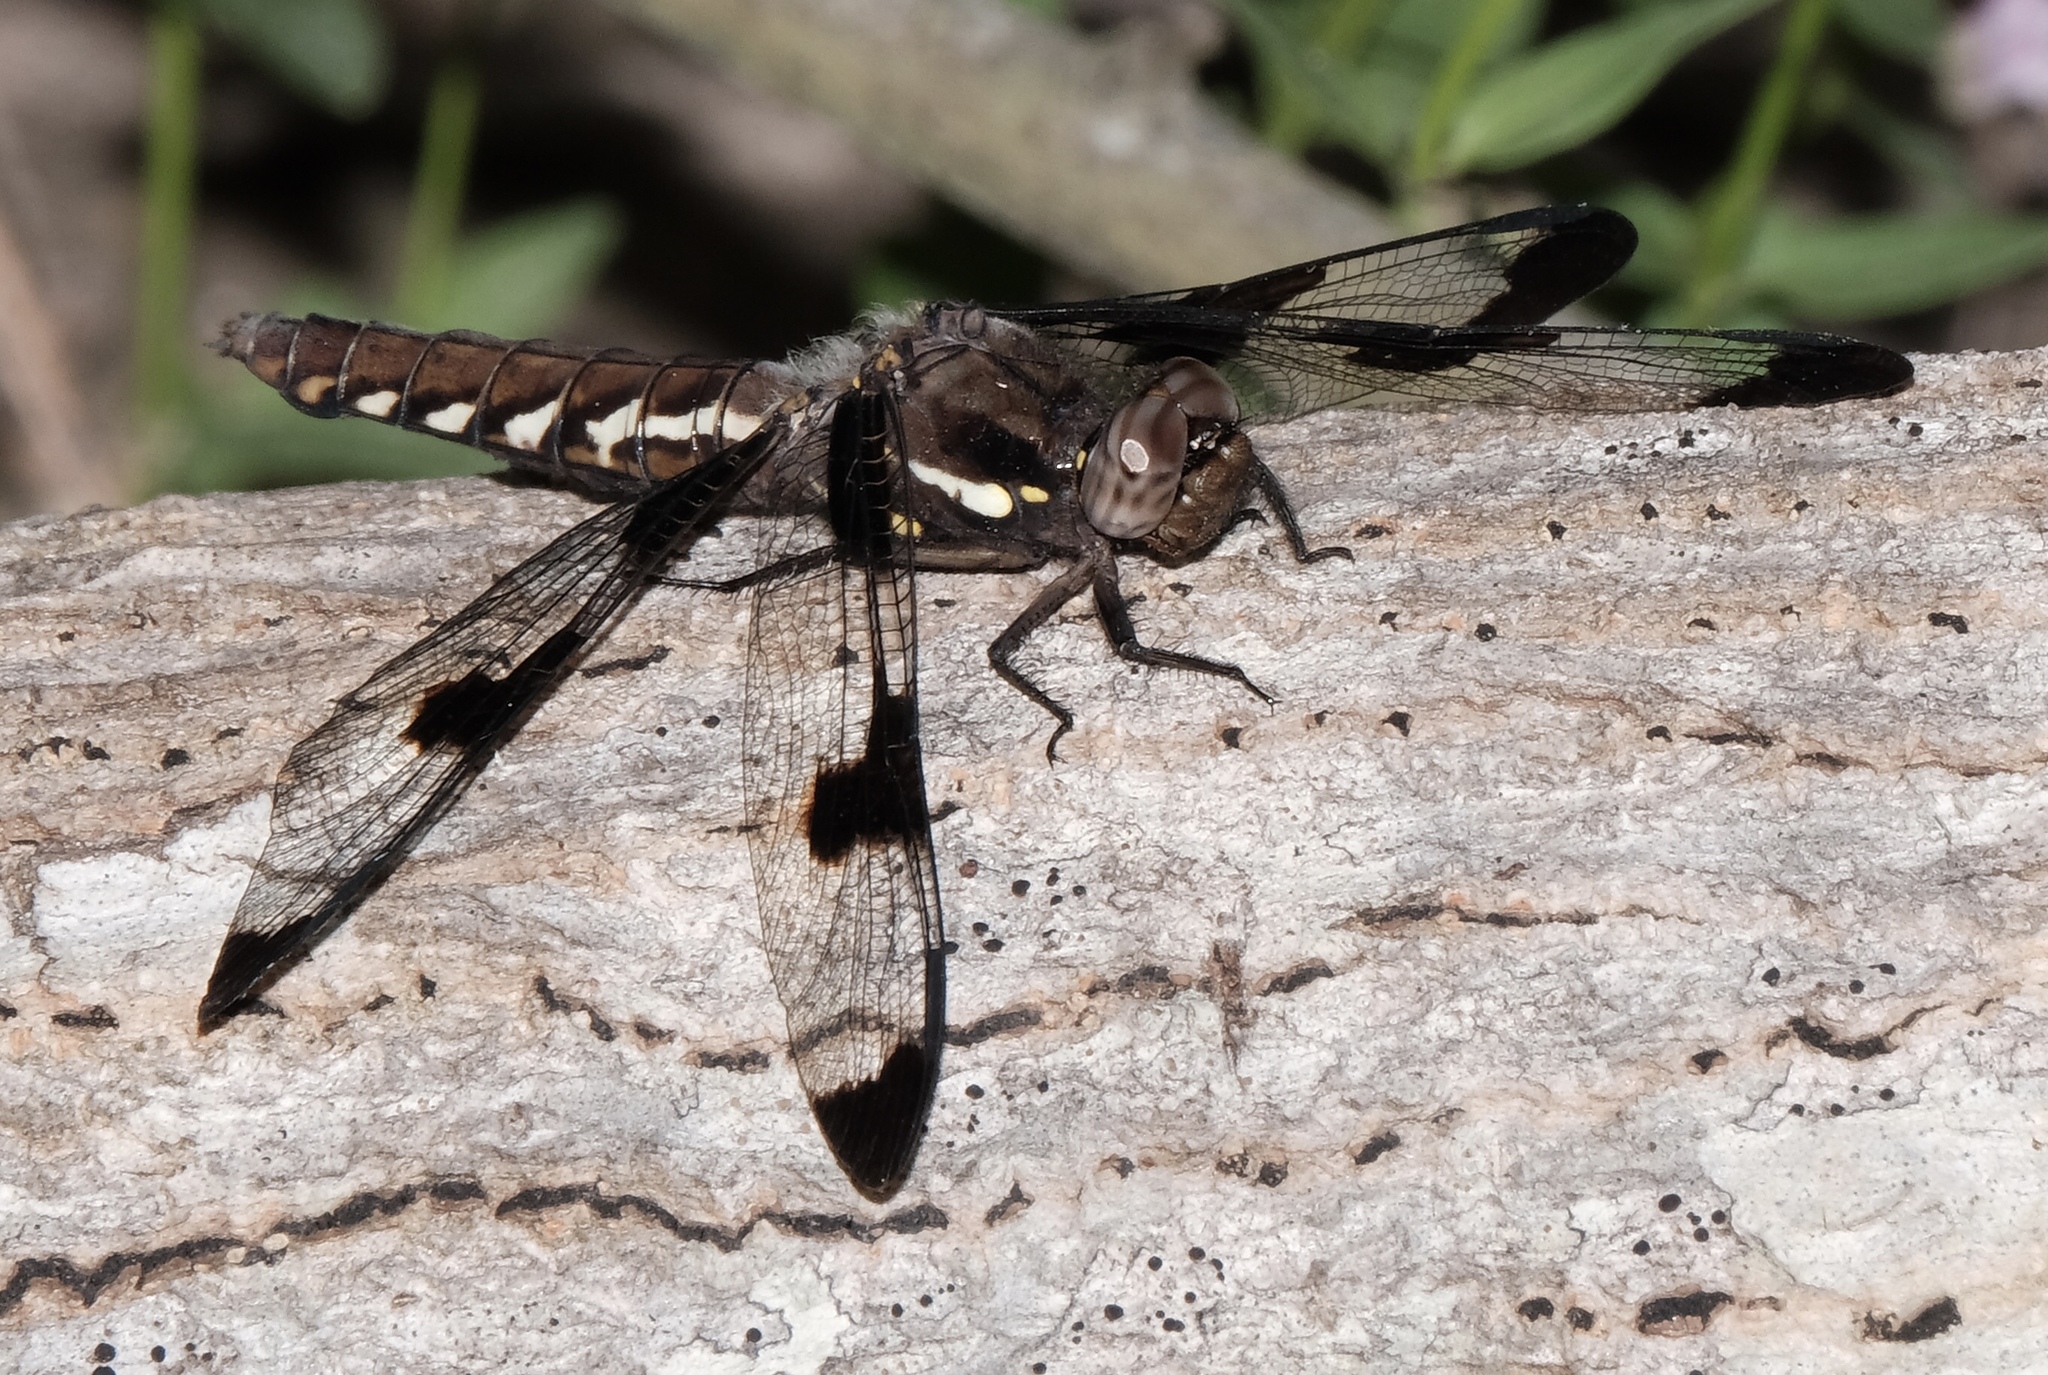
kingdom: Animalia
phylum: Arthropoda
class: Insecta
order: Odonata
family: Libellulidae
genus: Plathemis
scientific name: Plathemis lydia
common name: Common whitetail
